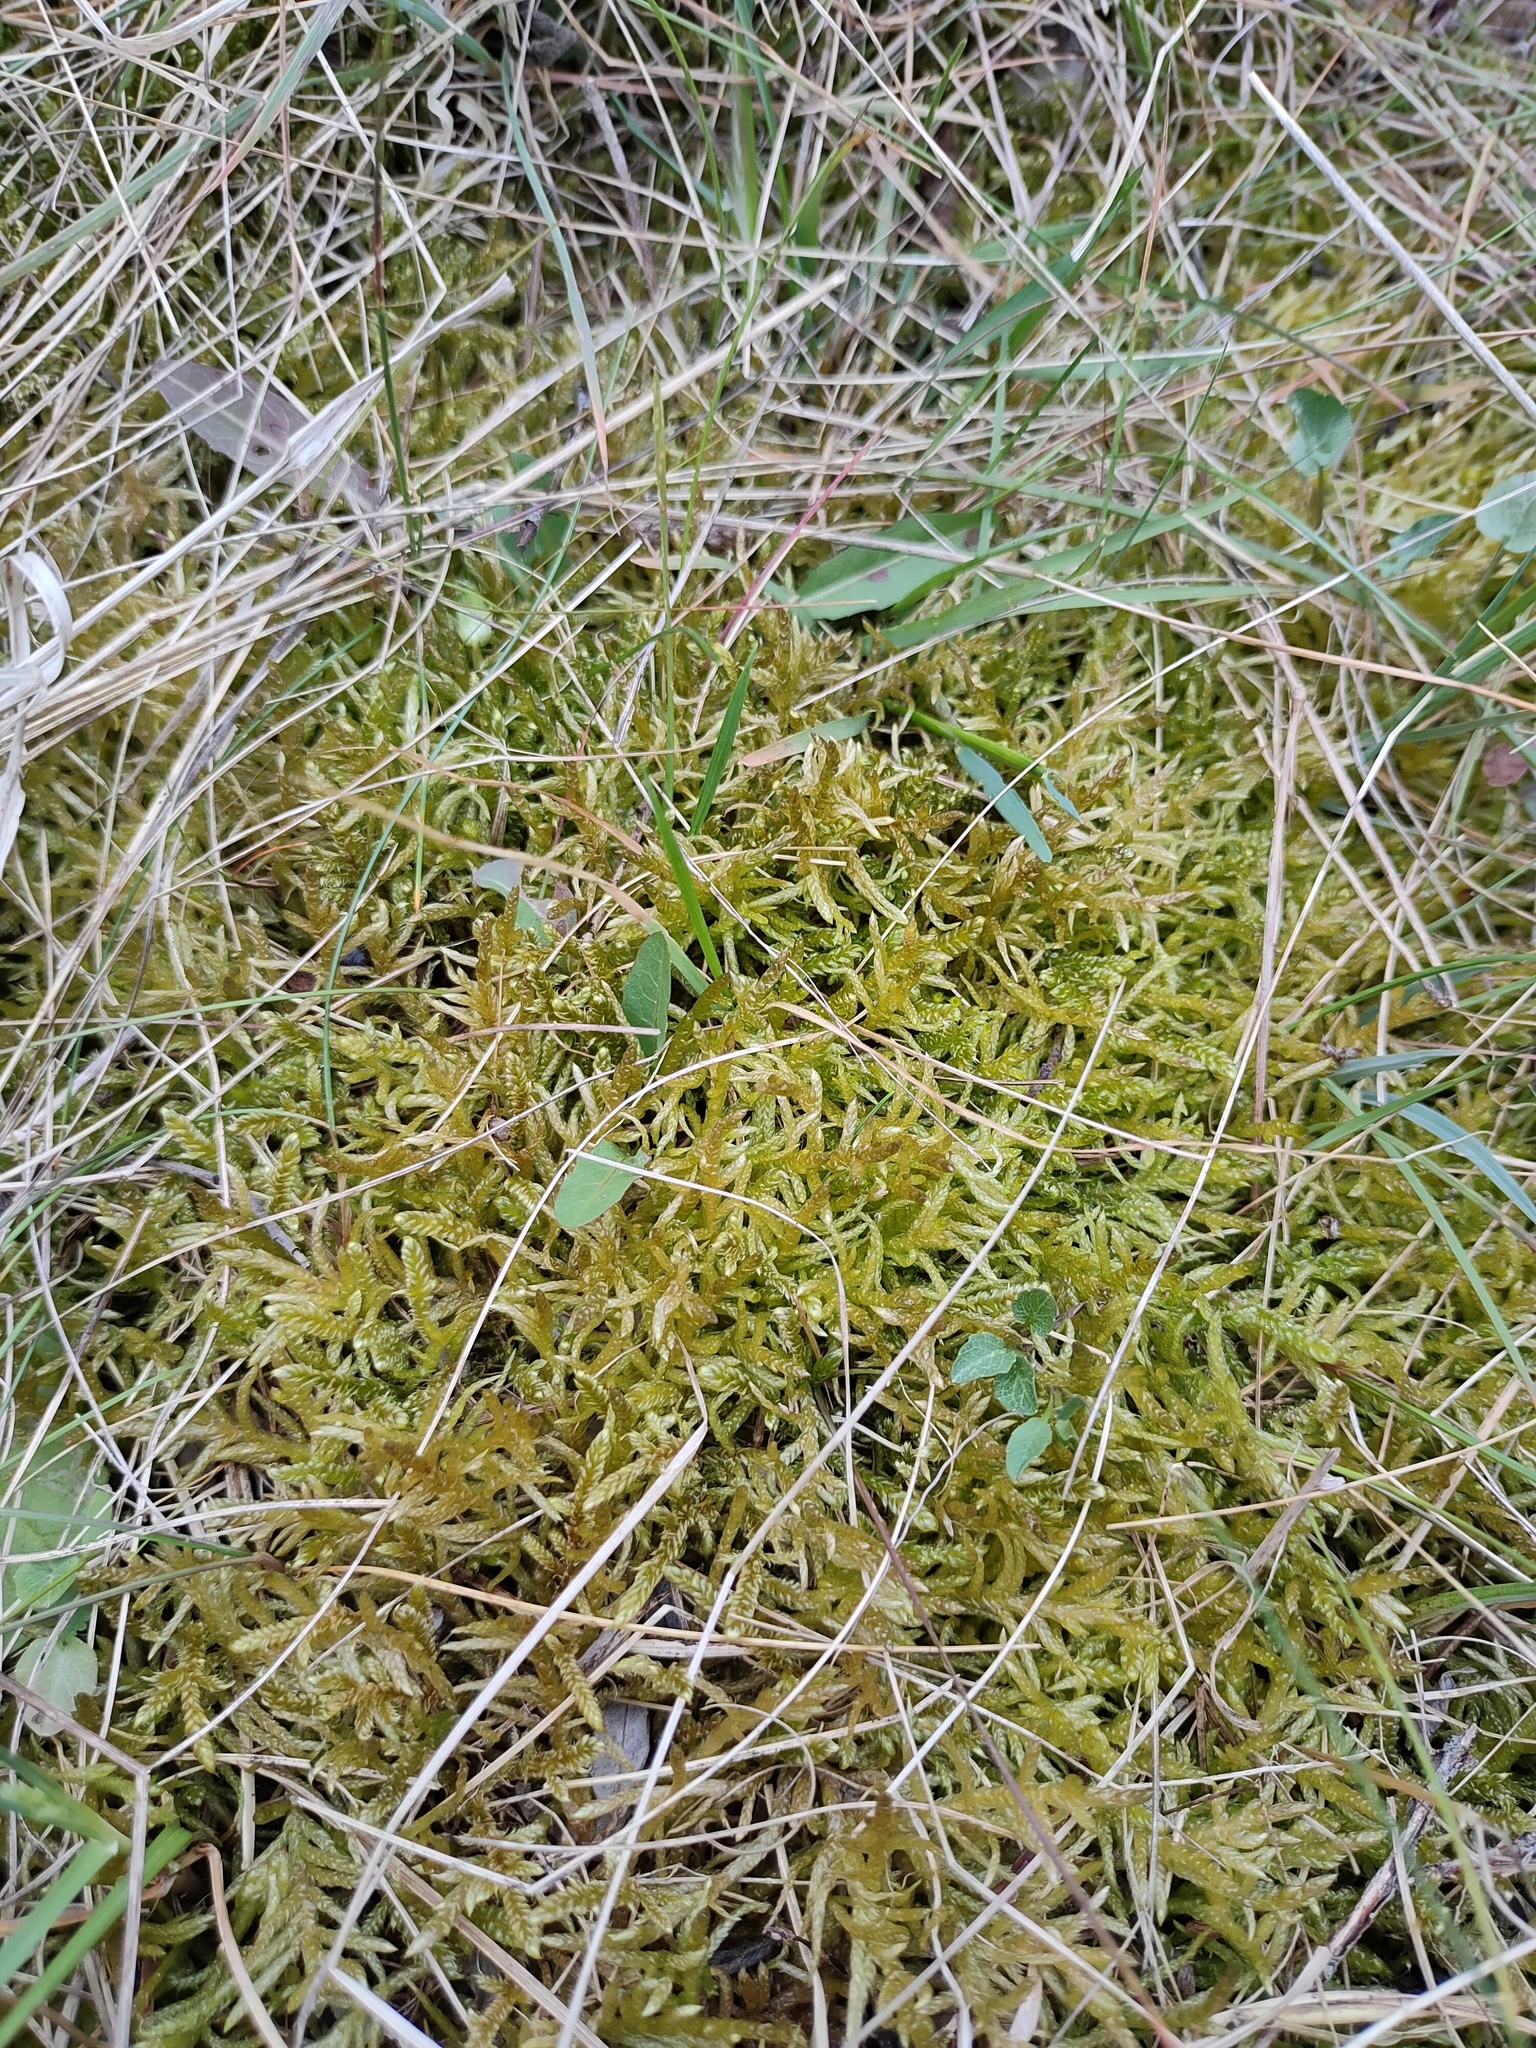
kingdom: Plantae
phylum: Bryophyta
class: Bryopsida
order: Hypnales
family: Brachytheciaceae
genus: Pseudoscleropodium
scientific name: Pseudoscleropodium purum
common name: Neat feather-moss
